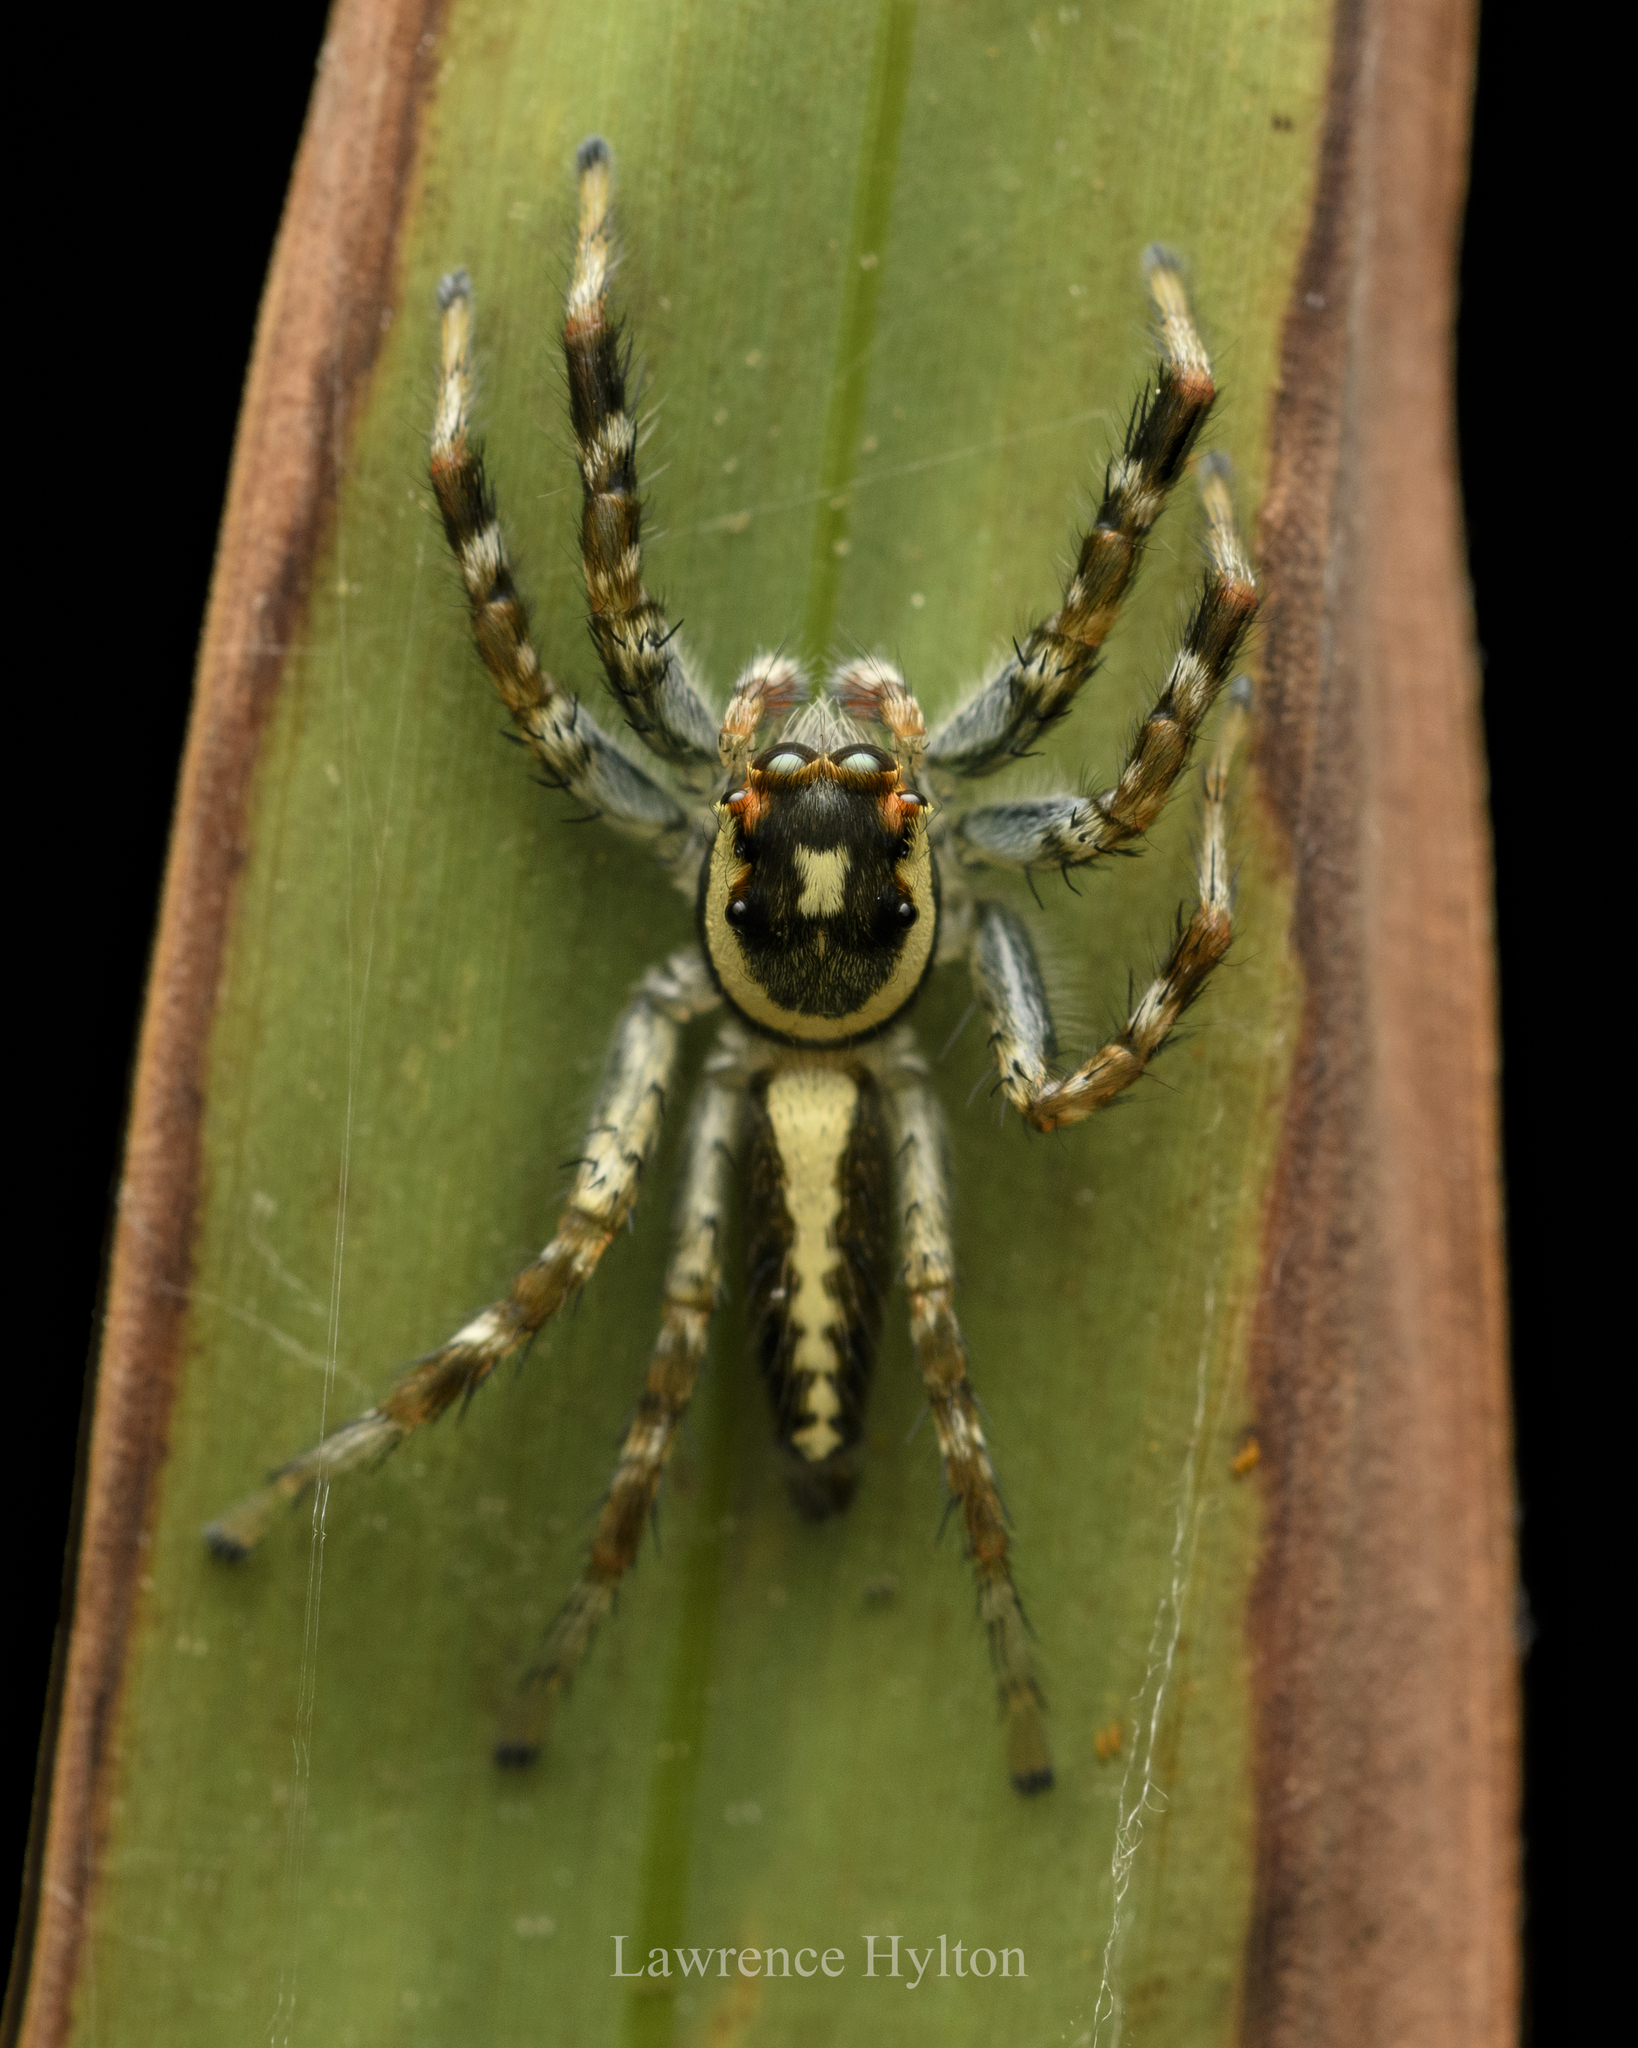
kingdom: Animalia
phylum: Arthropoda
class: Arachnida
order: Araneae
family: Salticidae
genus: Telamonia
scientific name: Telamonia caprina
